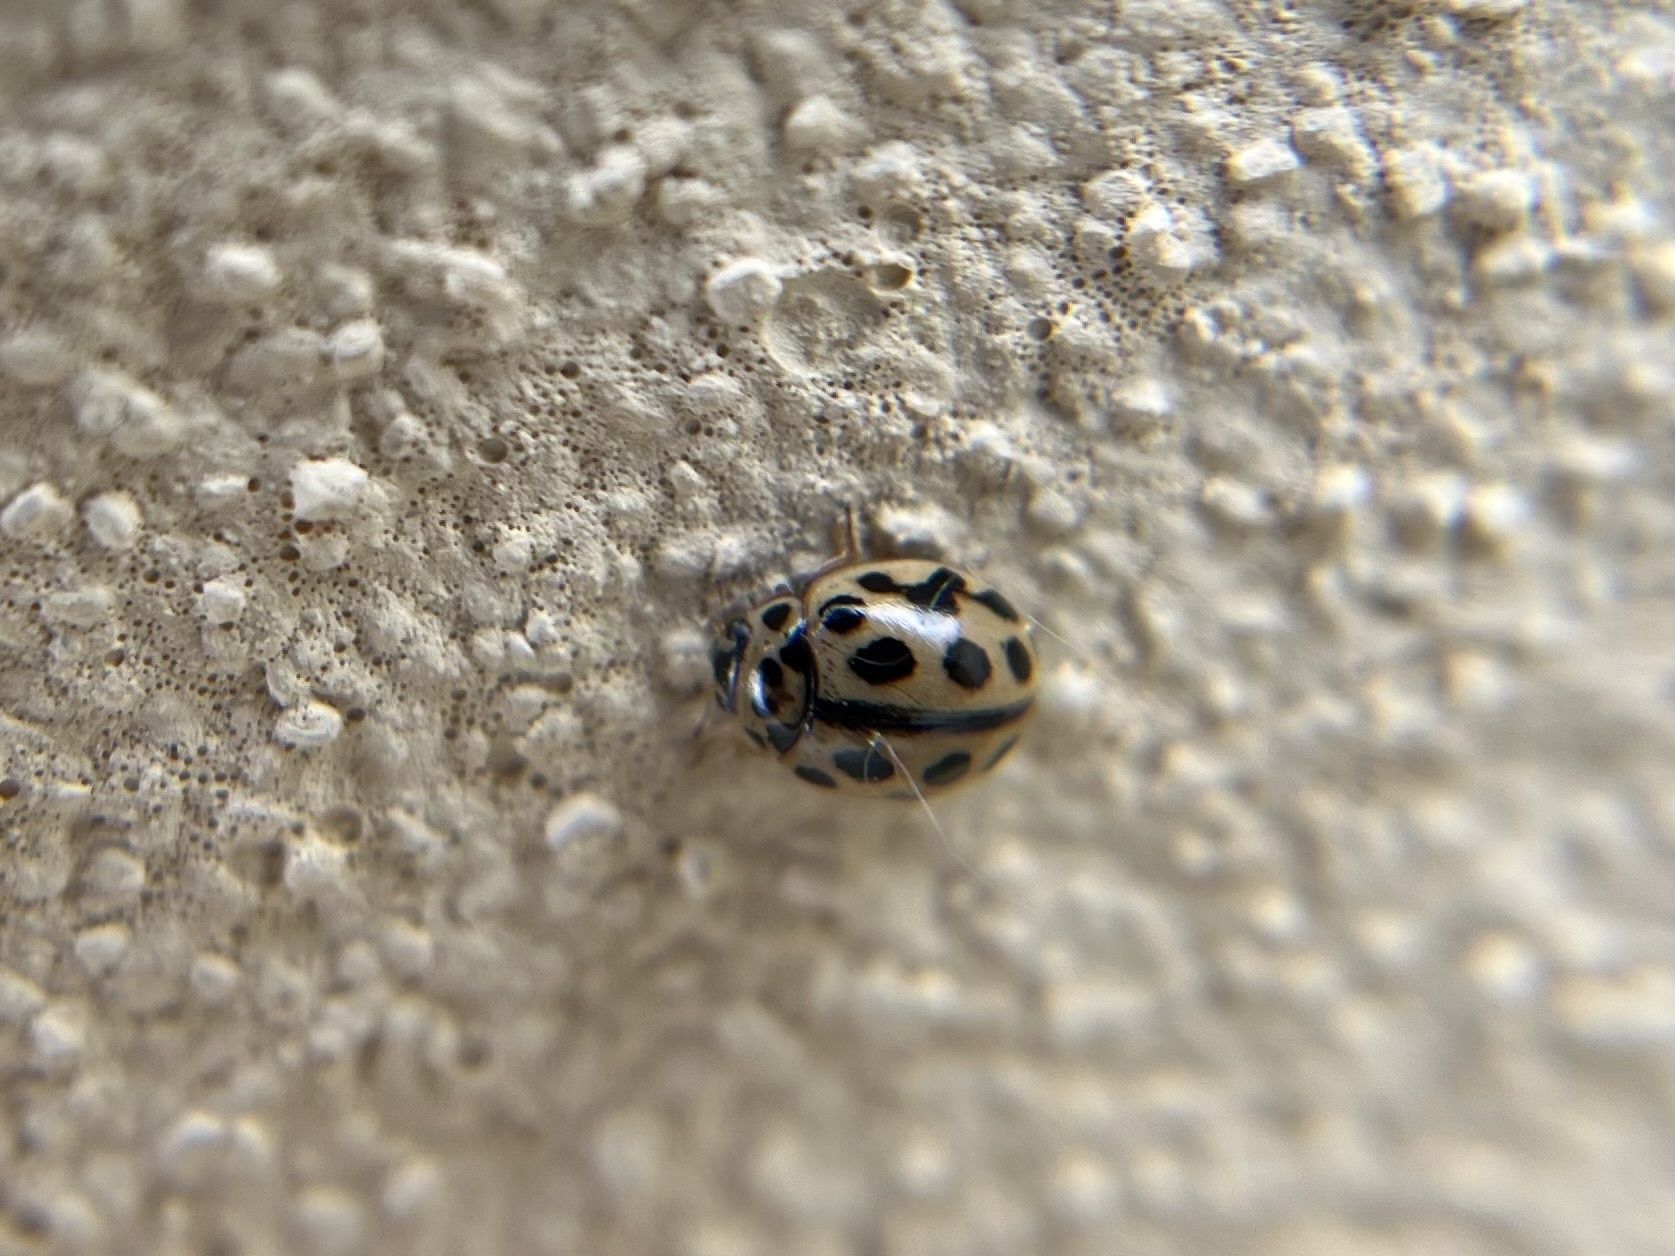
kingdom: Animalia
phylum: Arthropoda
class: Insecta
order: Coleoptera
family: Coccinellidae
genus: Tytthaspis
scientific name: Tytthaspis sedecimpunctata
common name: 16-spot ladybird
